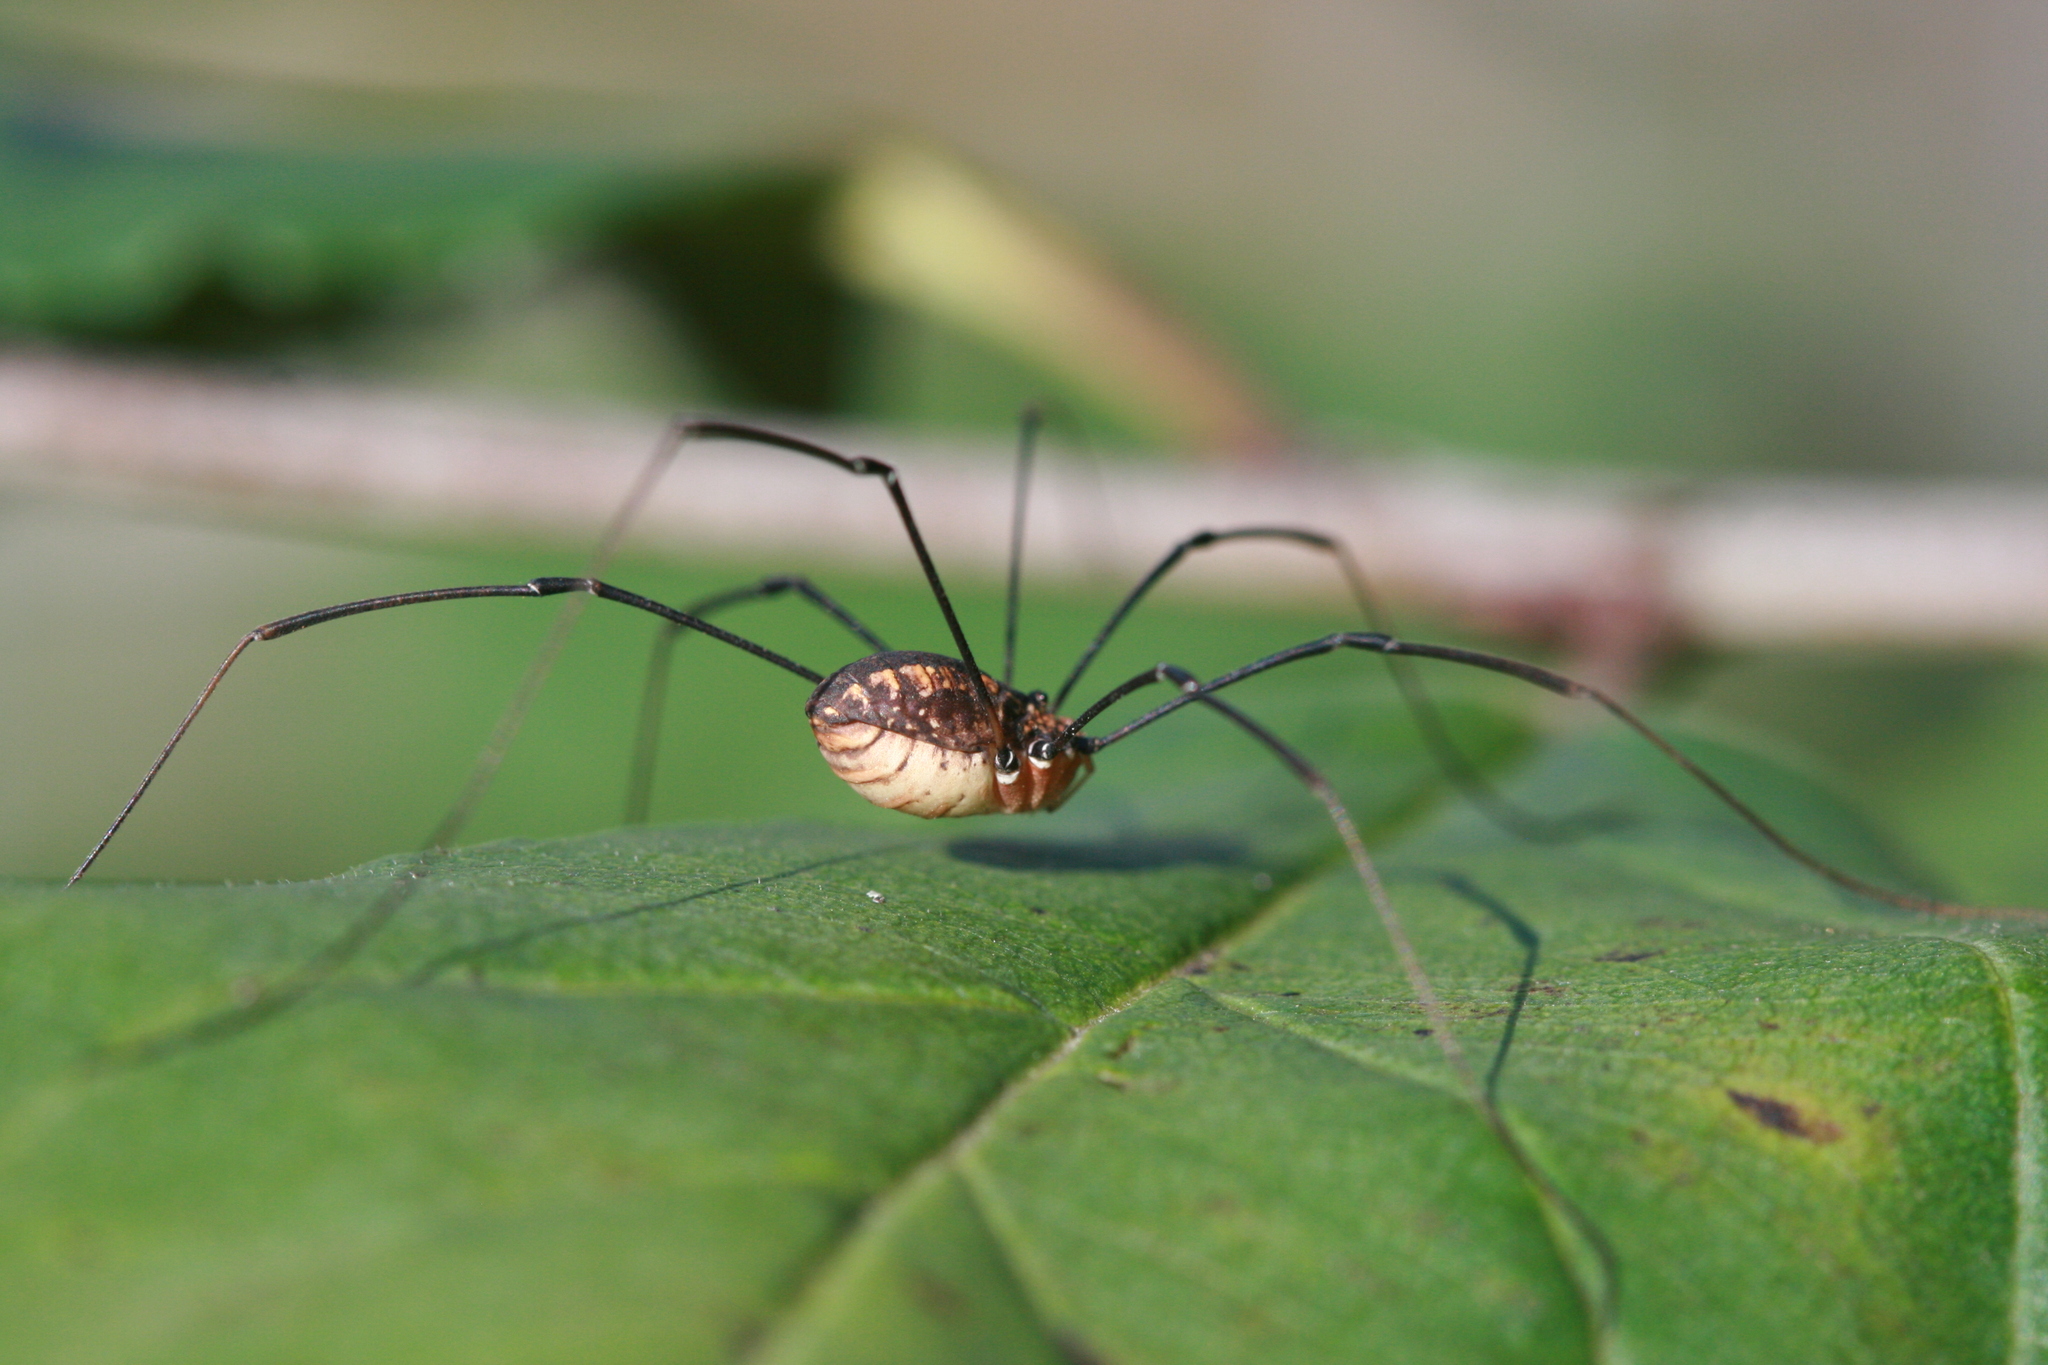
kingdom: Animalia
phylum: Arthropoda
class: Arachnida
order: Opiliones
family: Sclerosomatidae
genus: Leiobunum
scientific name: Leiobunum vittatum
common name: Eastern harvestman
